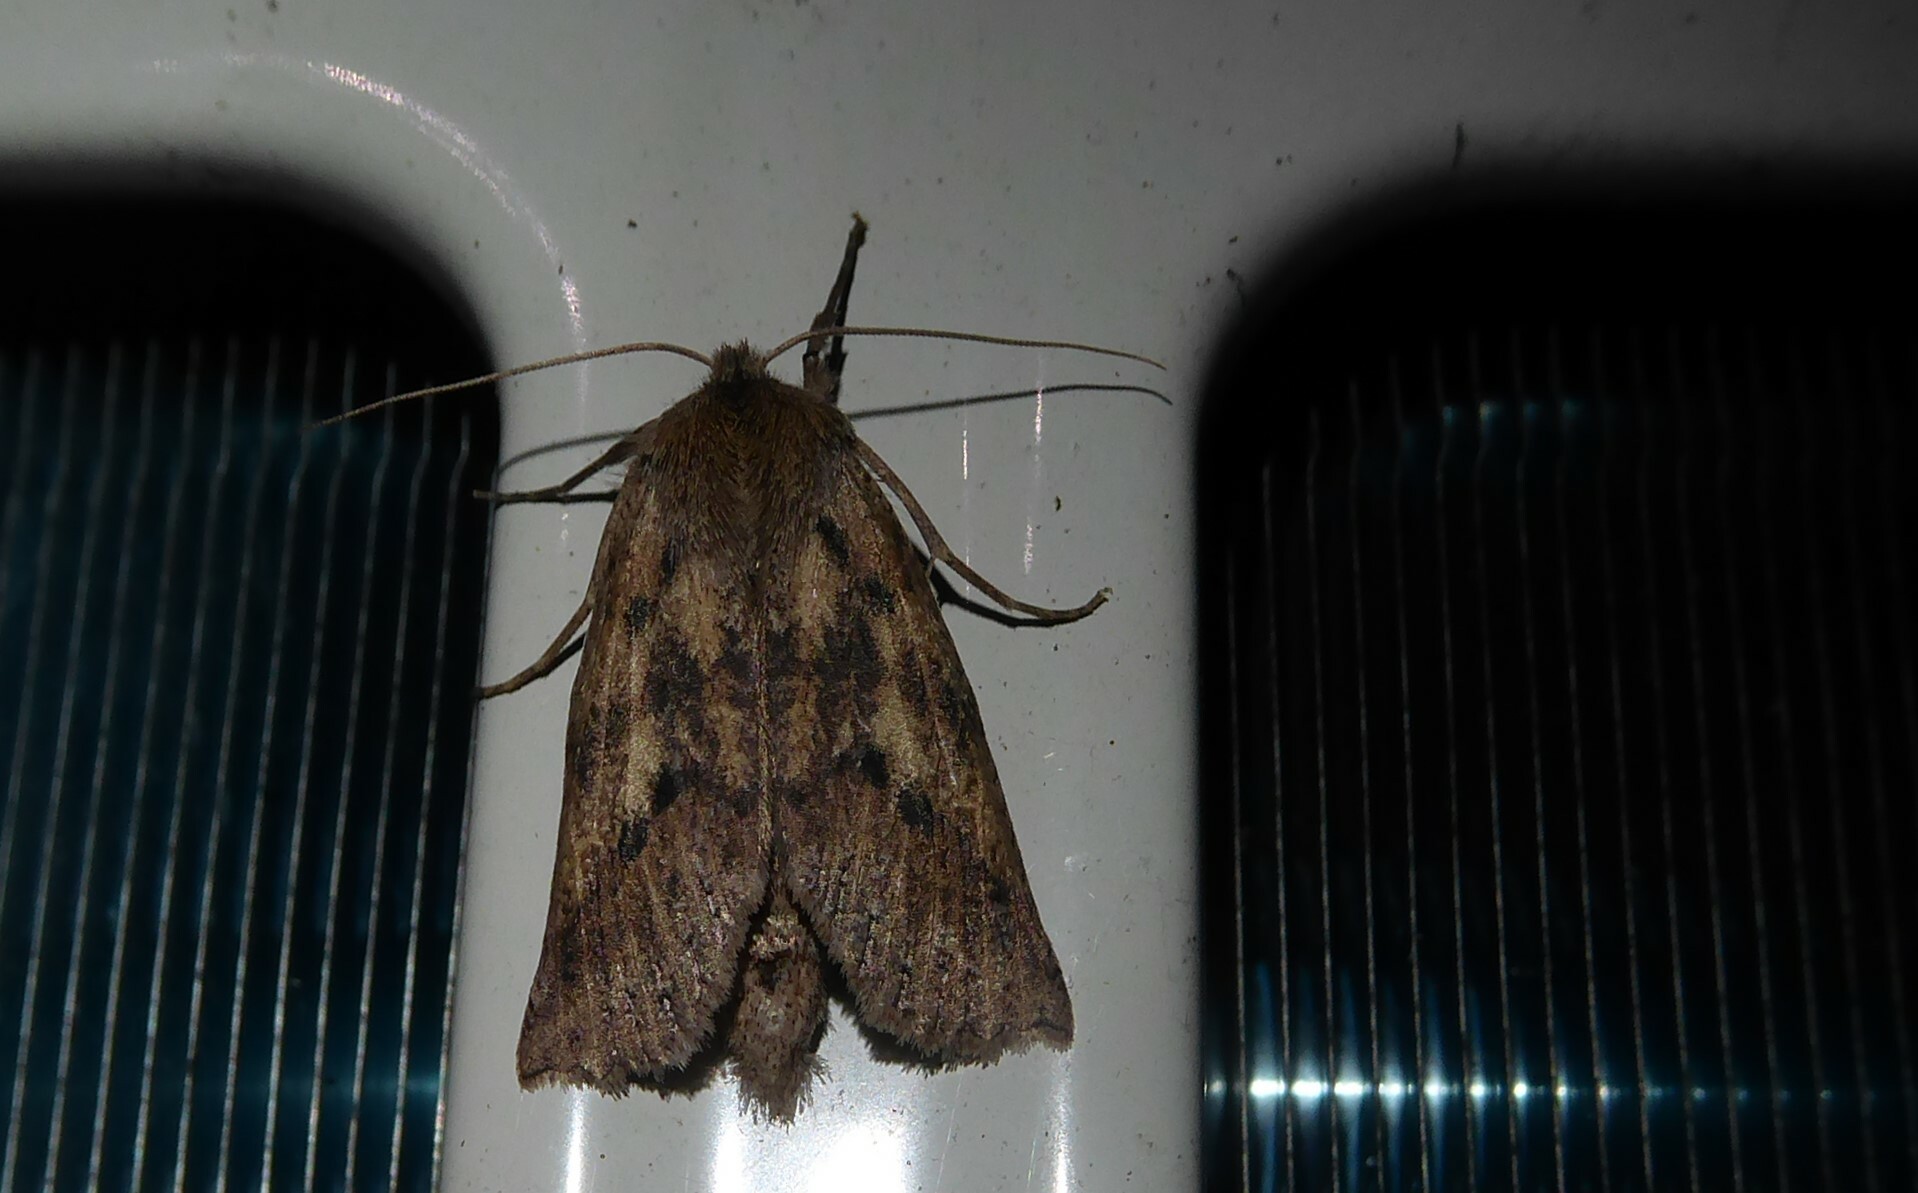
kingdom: Animalia
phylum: Arthropoda
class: Insecta
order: Lepidoptera
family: Geometridae
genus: Declana
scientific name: Declana leptomera
